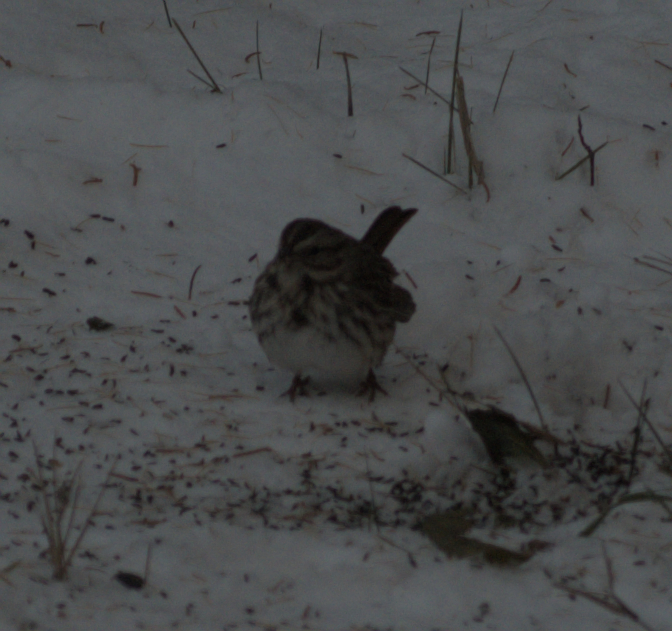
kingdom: Animalia
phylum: Chordata
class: Aves
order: Passeriformes
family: Passerellidae
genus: Melospiza
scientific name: Melospiza melodia
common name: Song sparrow
